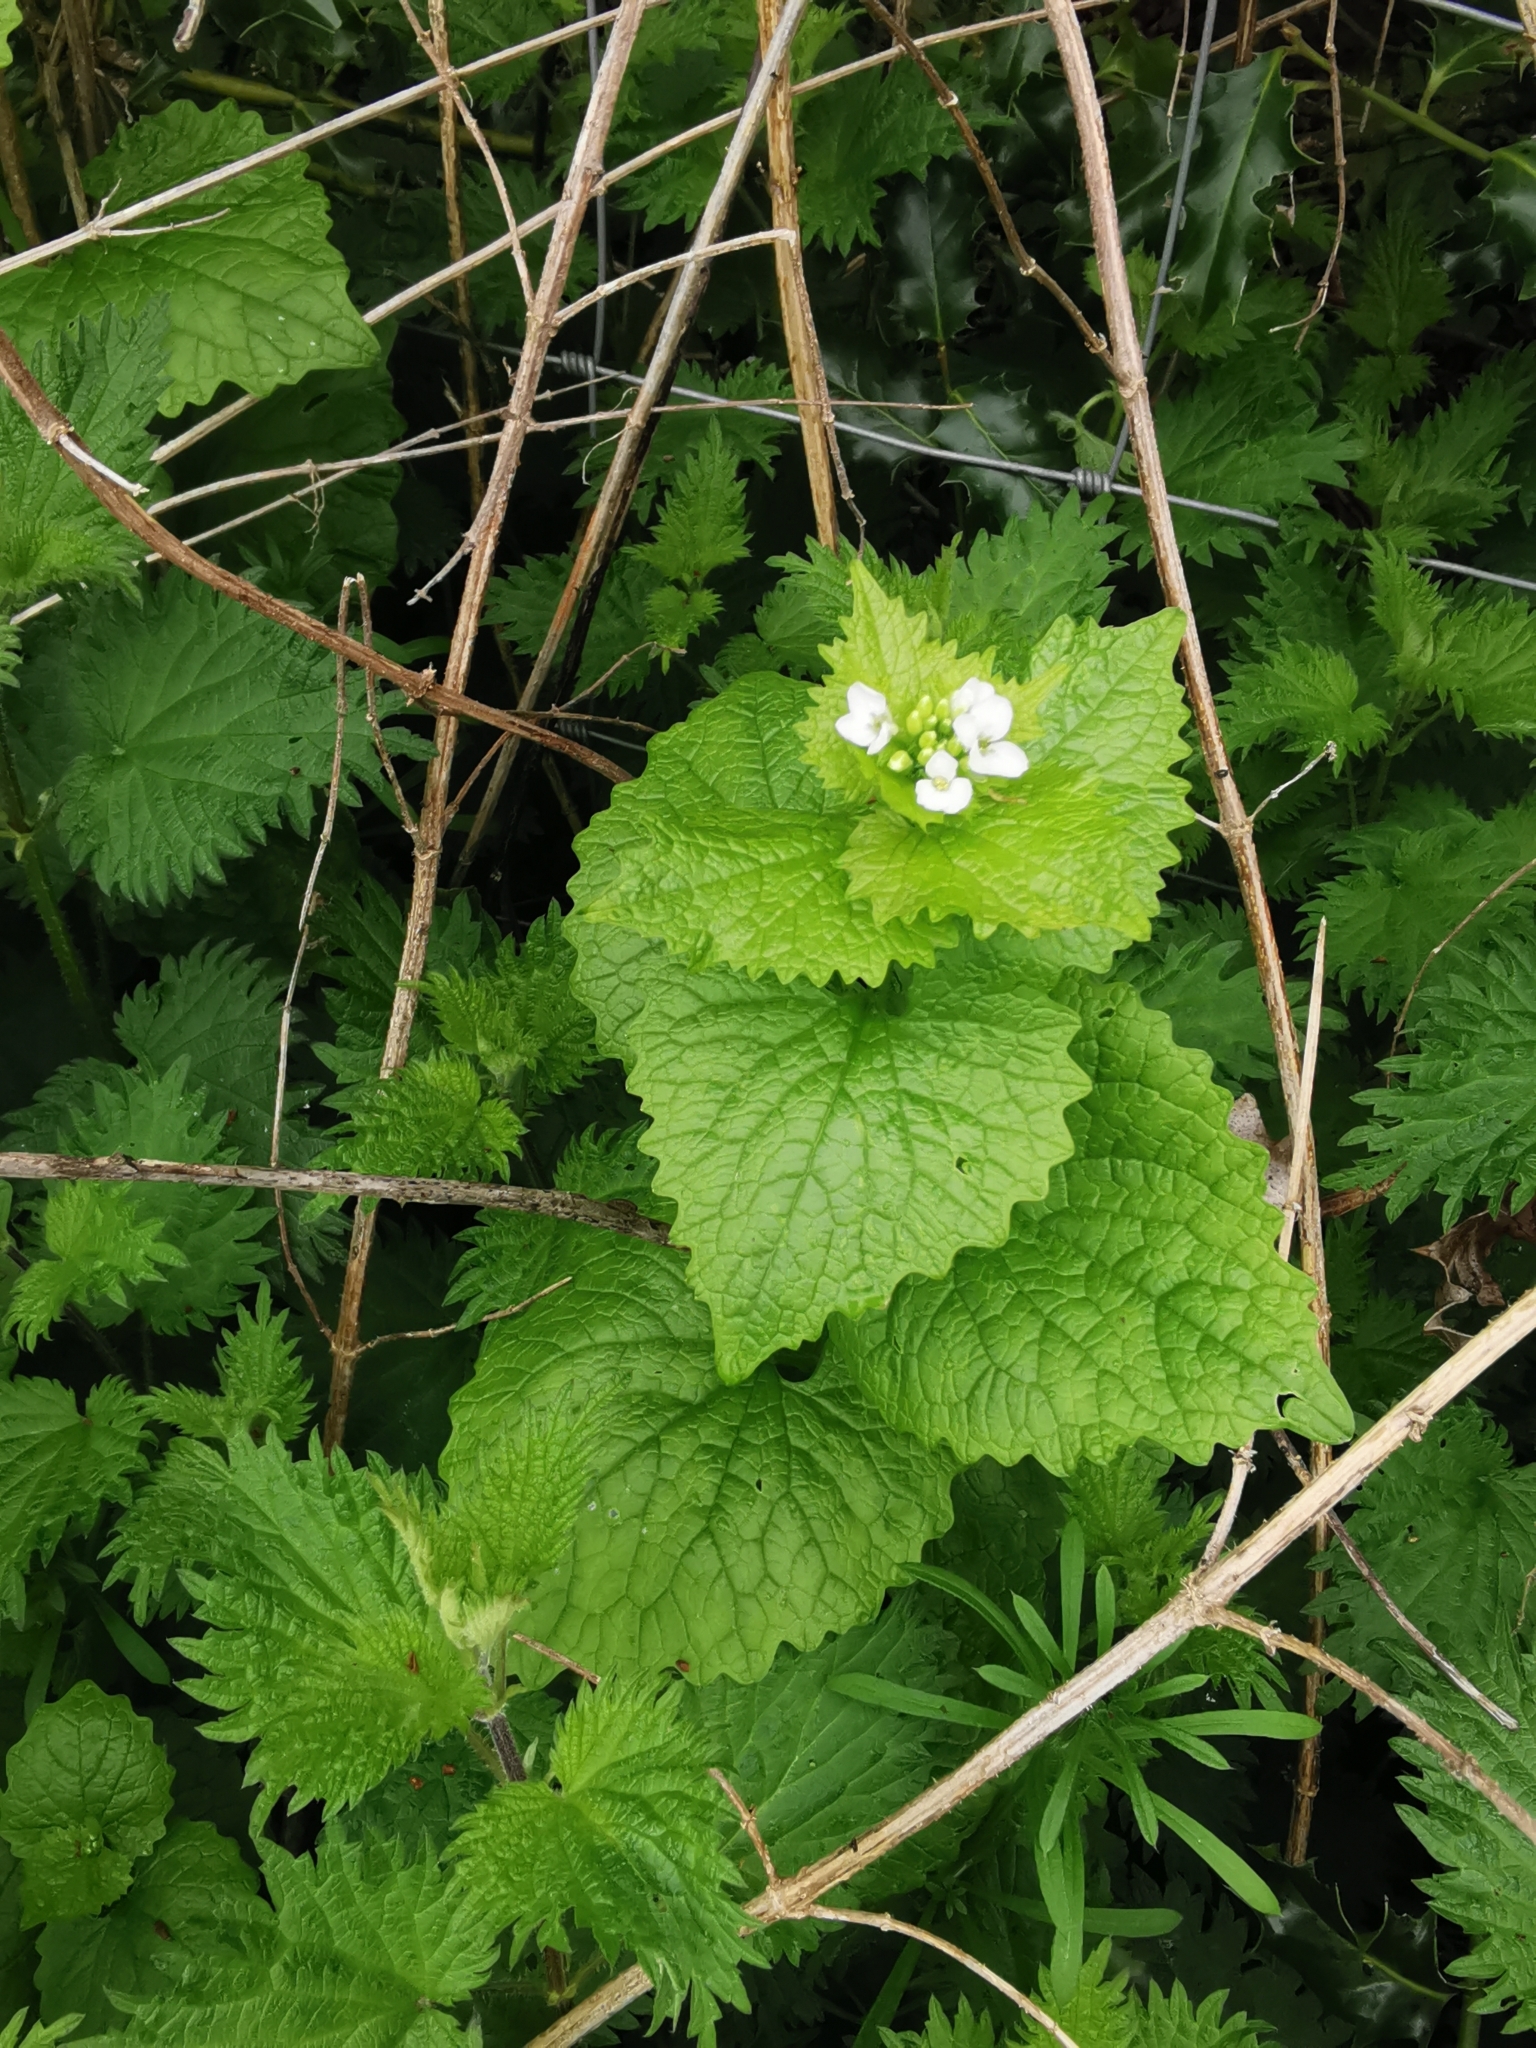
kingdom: Plantae
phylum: Tracheophyta
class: Magnoliopsida
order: Brassicales
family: Brassicaceae
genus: Alliaria
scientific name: Alliaria petiolata
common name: Garlic mustard
